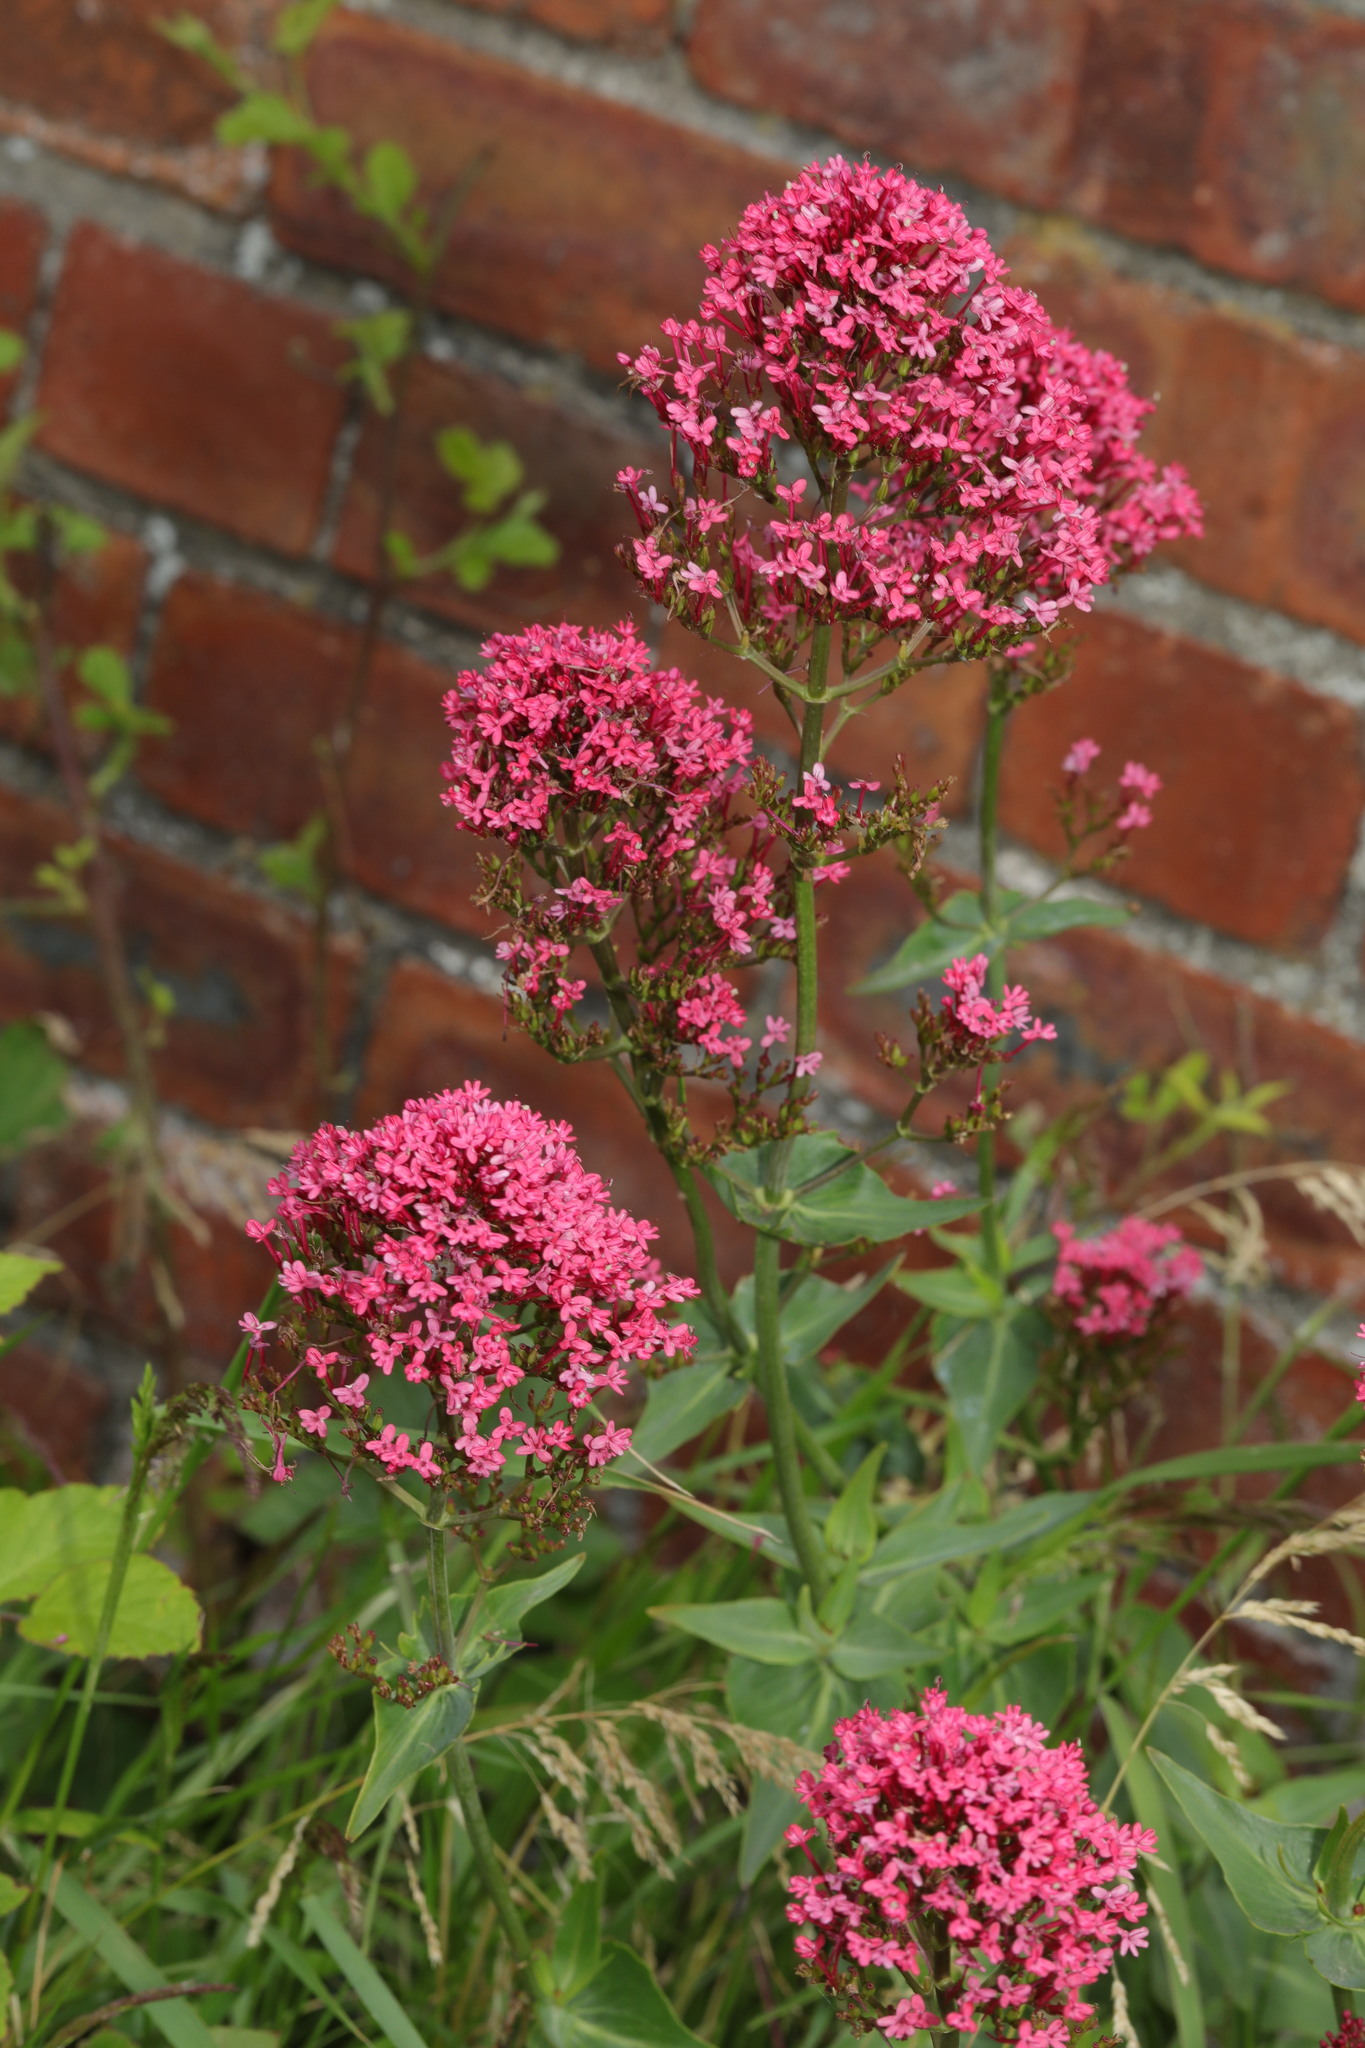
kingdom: Plantae
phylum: Tracheophyta
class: Magnoliopsida
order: Dipsacales
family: Caprifoliaceae
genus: Centranthus
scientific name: Centranthus ruber
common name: Red valerian
